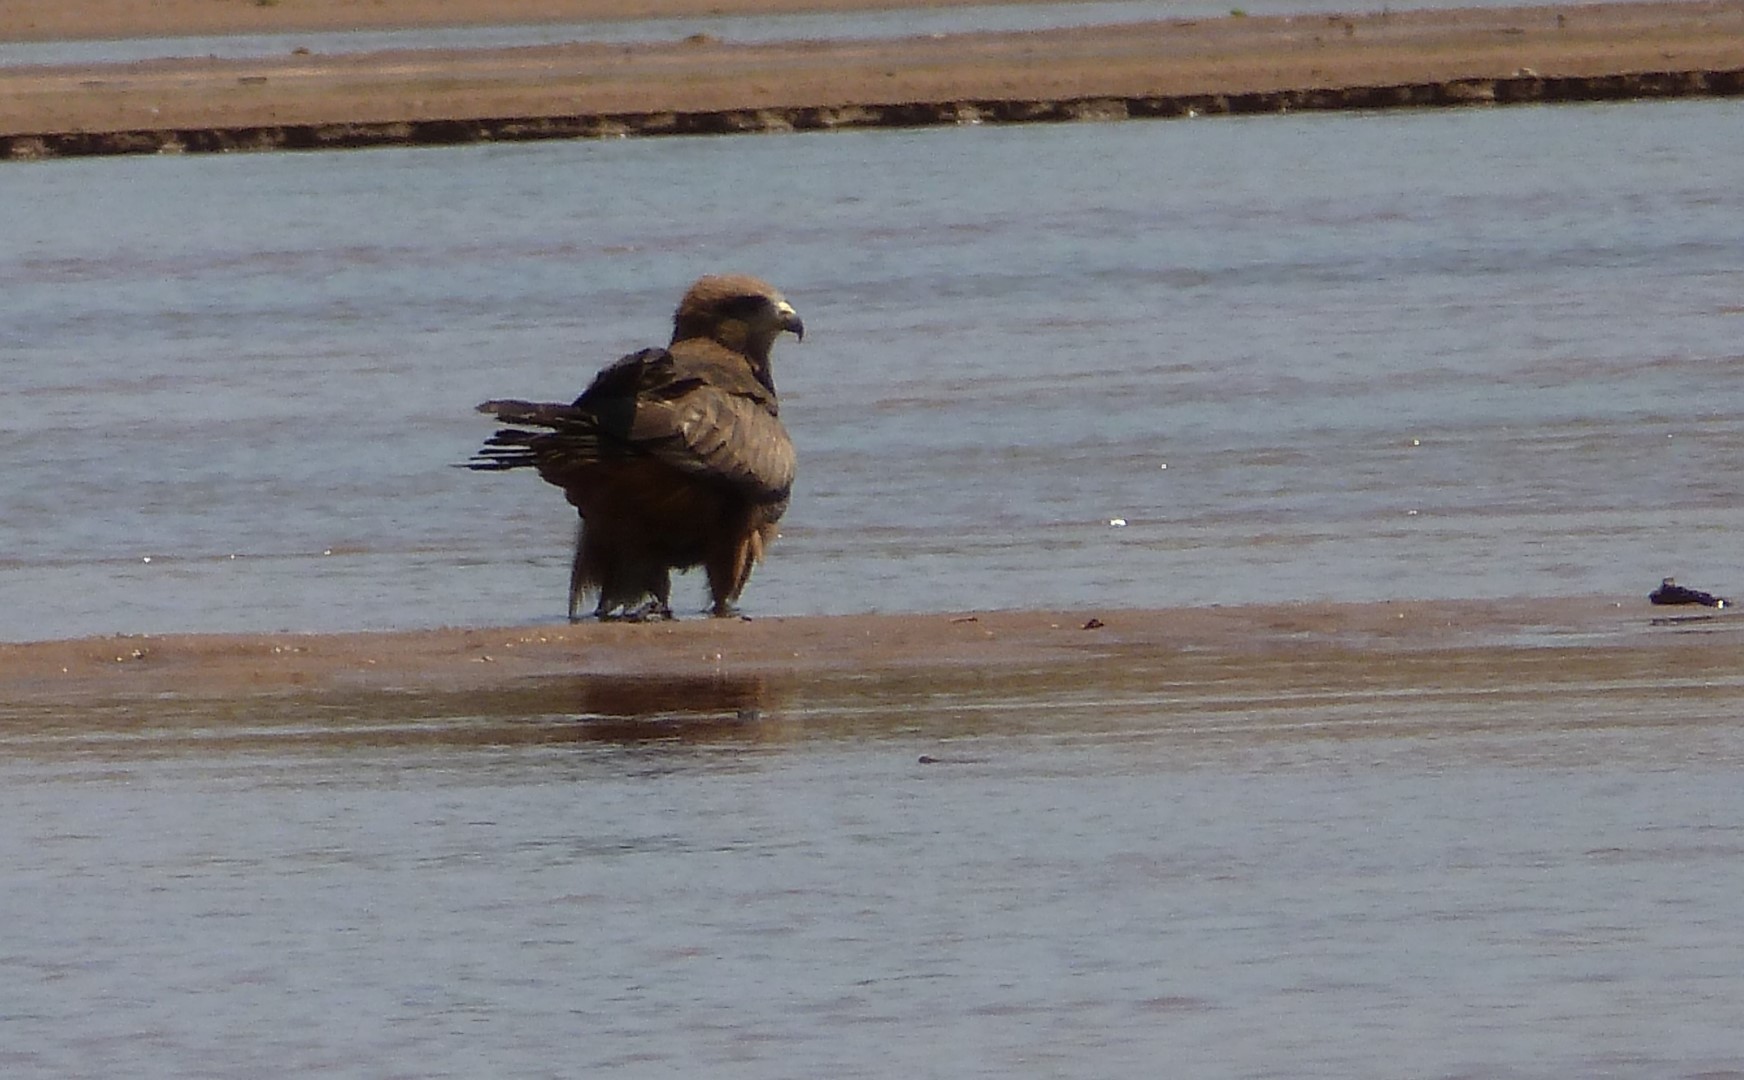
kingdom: Animalia
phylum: Chordata
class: Aves
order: Accipitriformes
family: Accipitridae
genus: Milvus
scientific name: Milvus migrans
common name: Black kite
